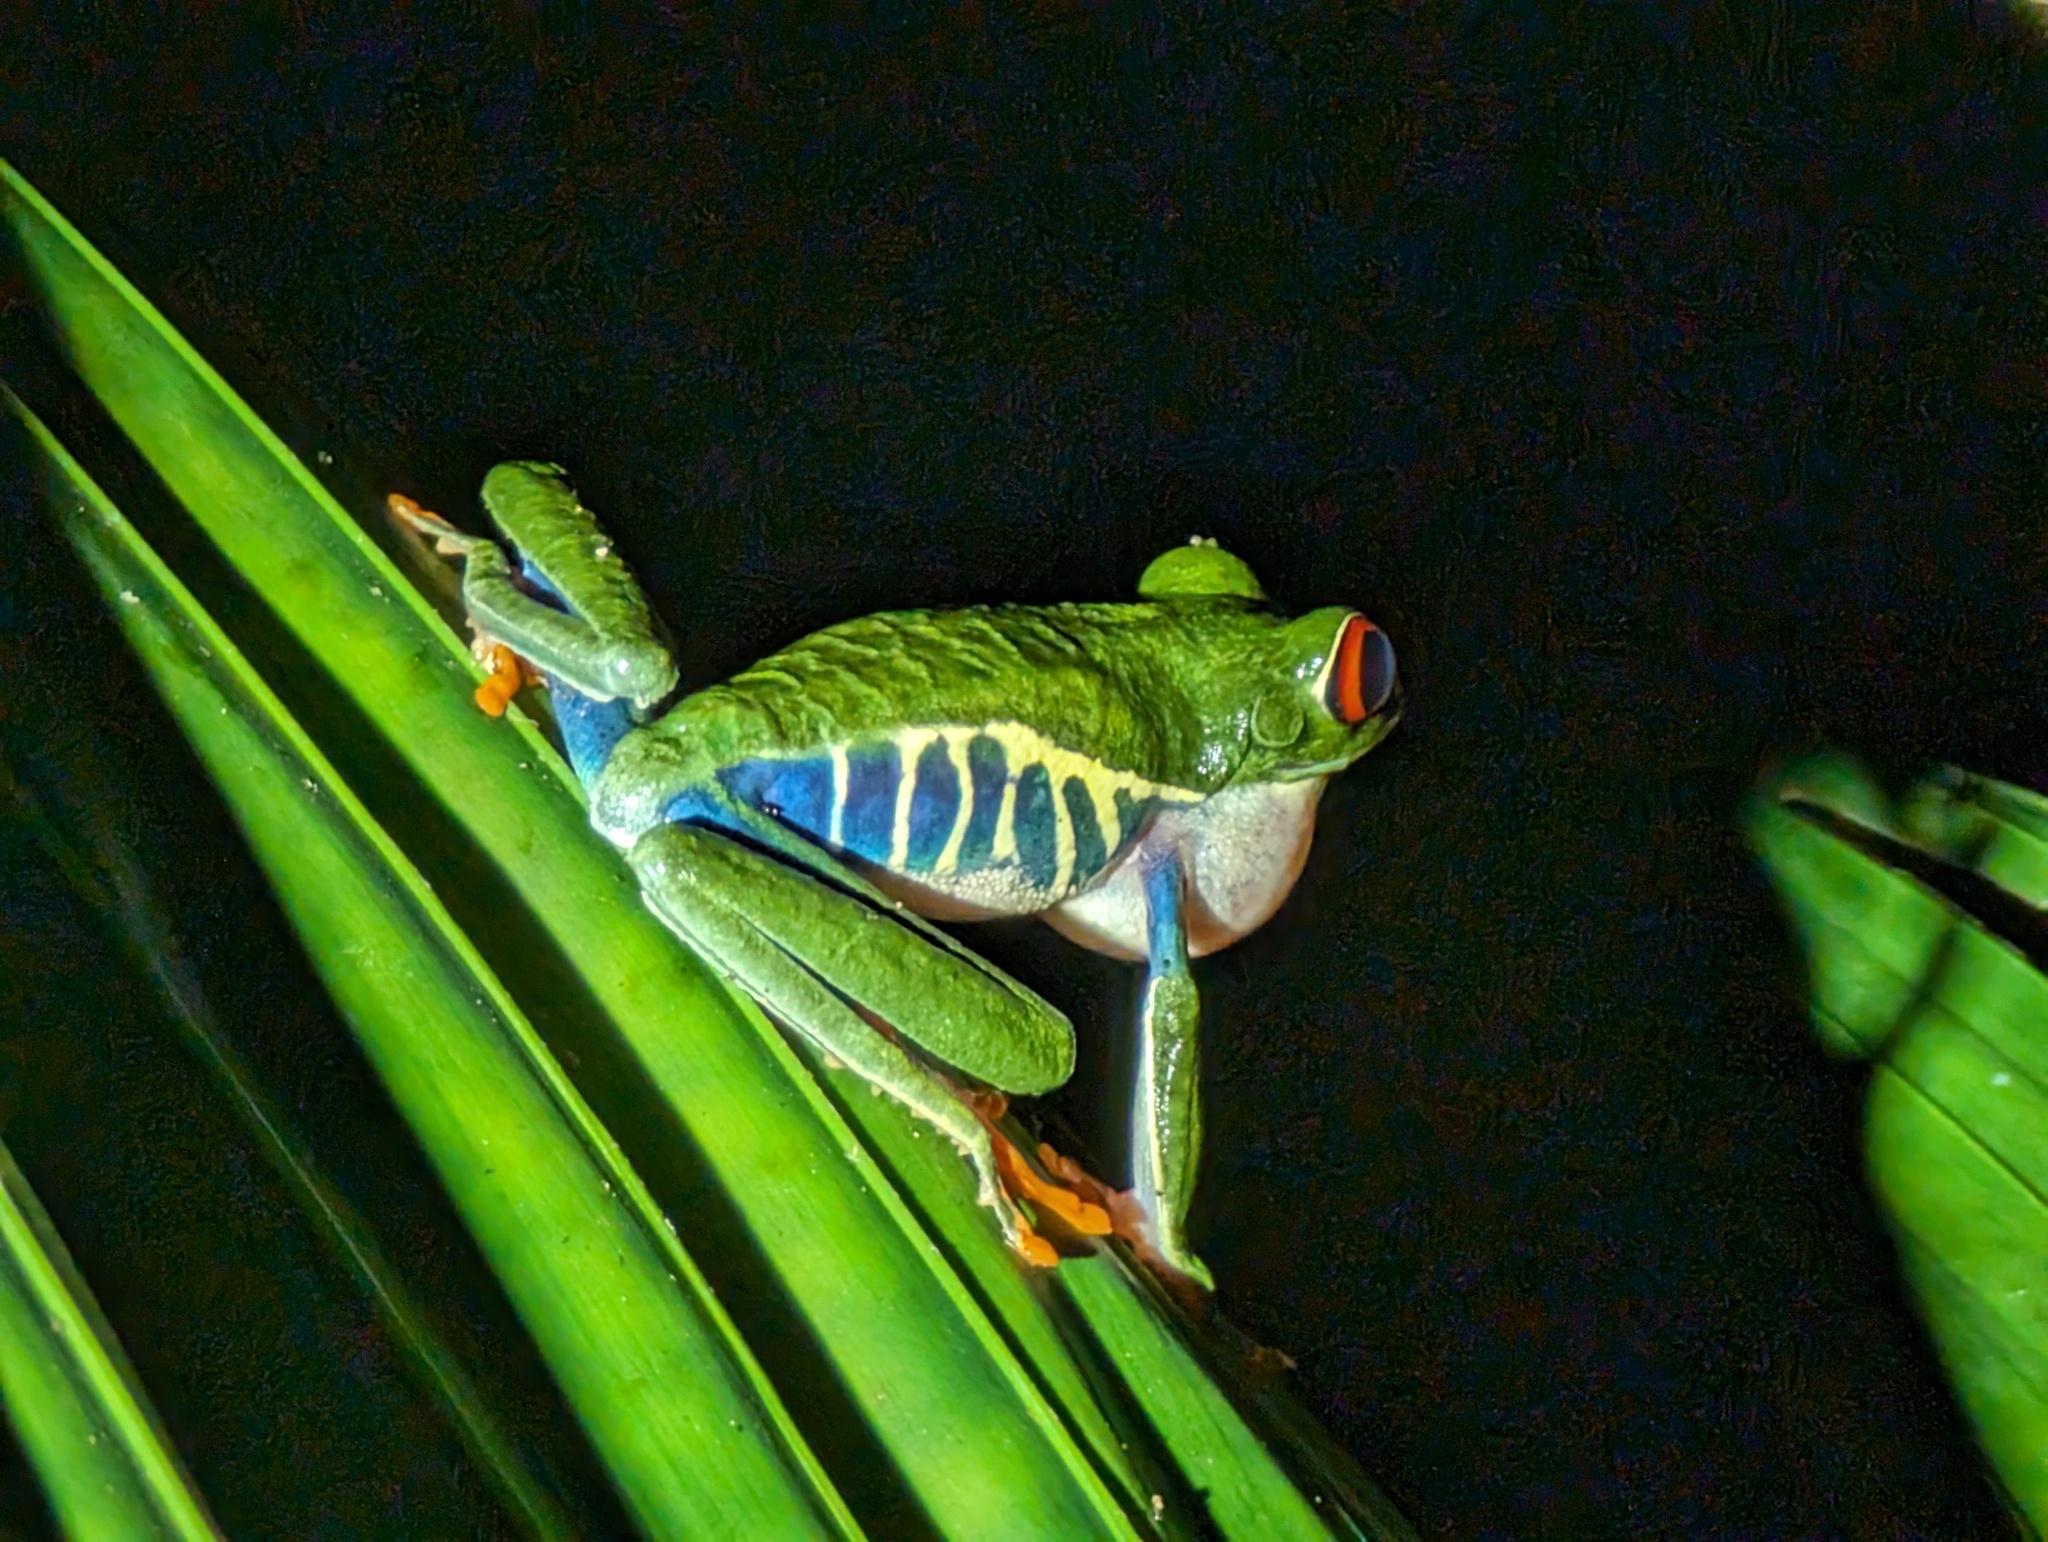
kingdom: Animalia
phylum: Chordata
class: Amphibia
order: Anura
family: Phyllomedusidae
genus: Agalychnis
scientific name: Agalychnis callidryas
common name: Red-eyed treefrog
